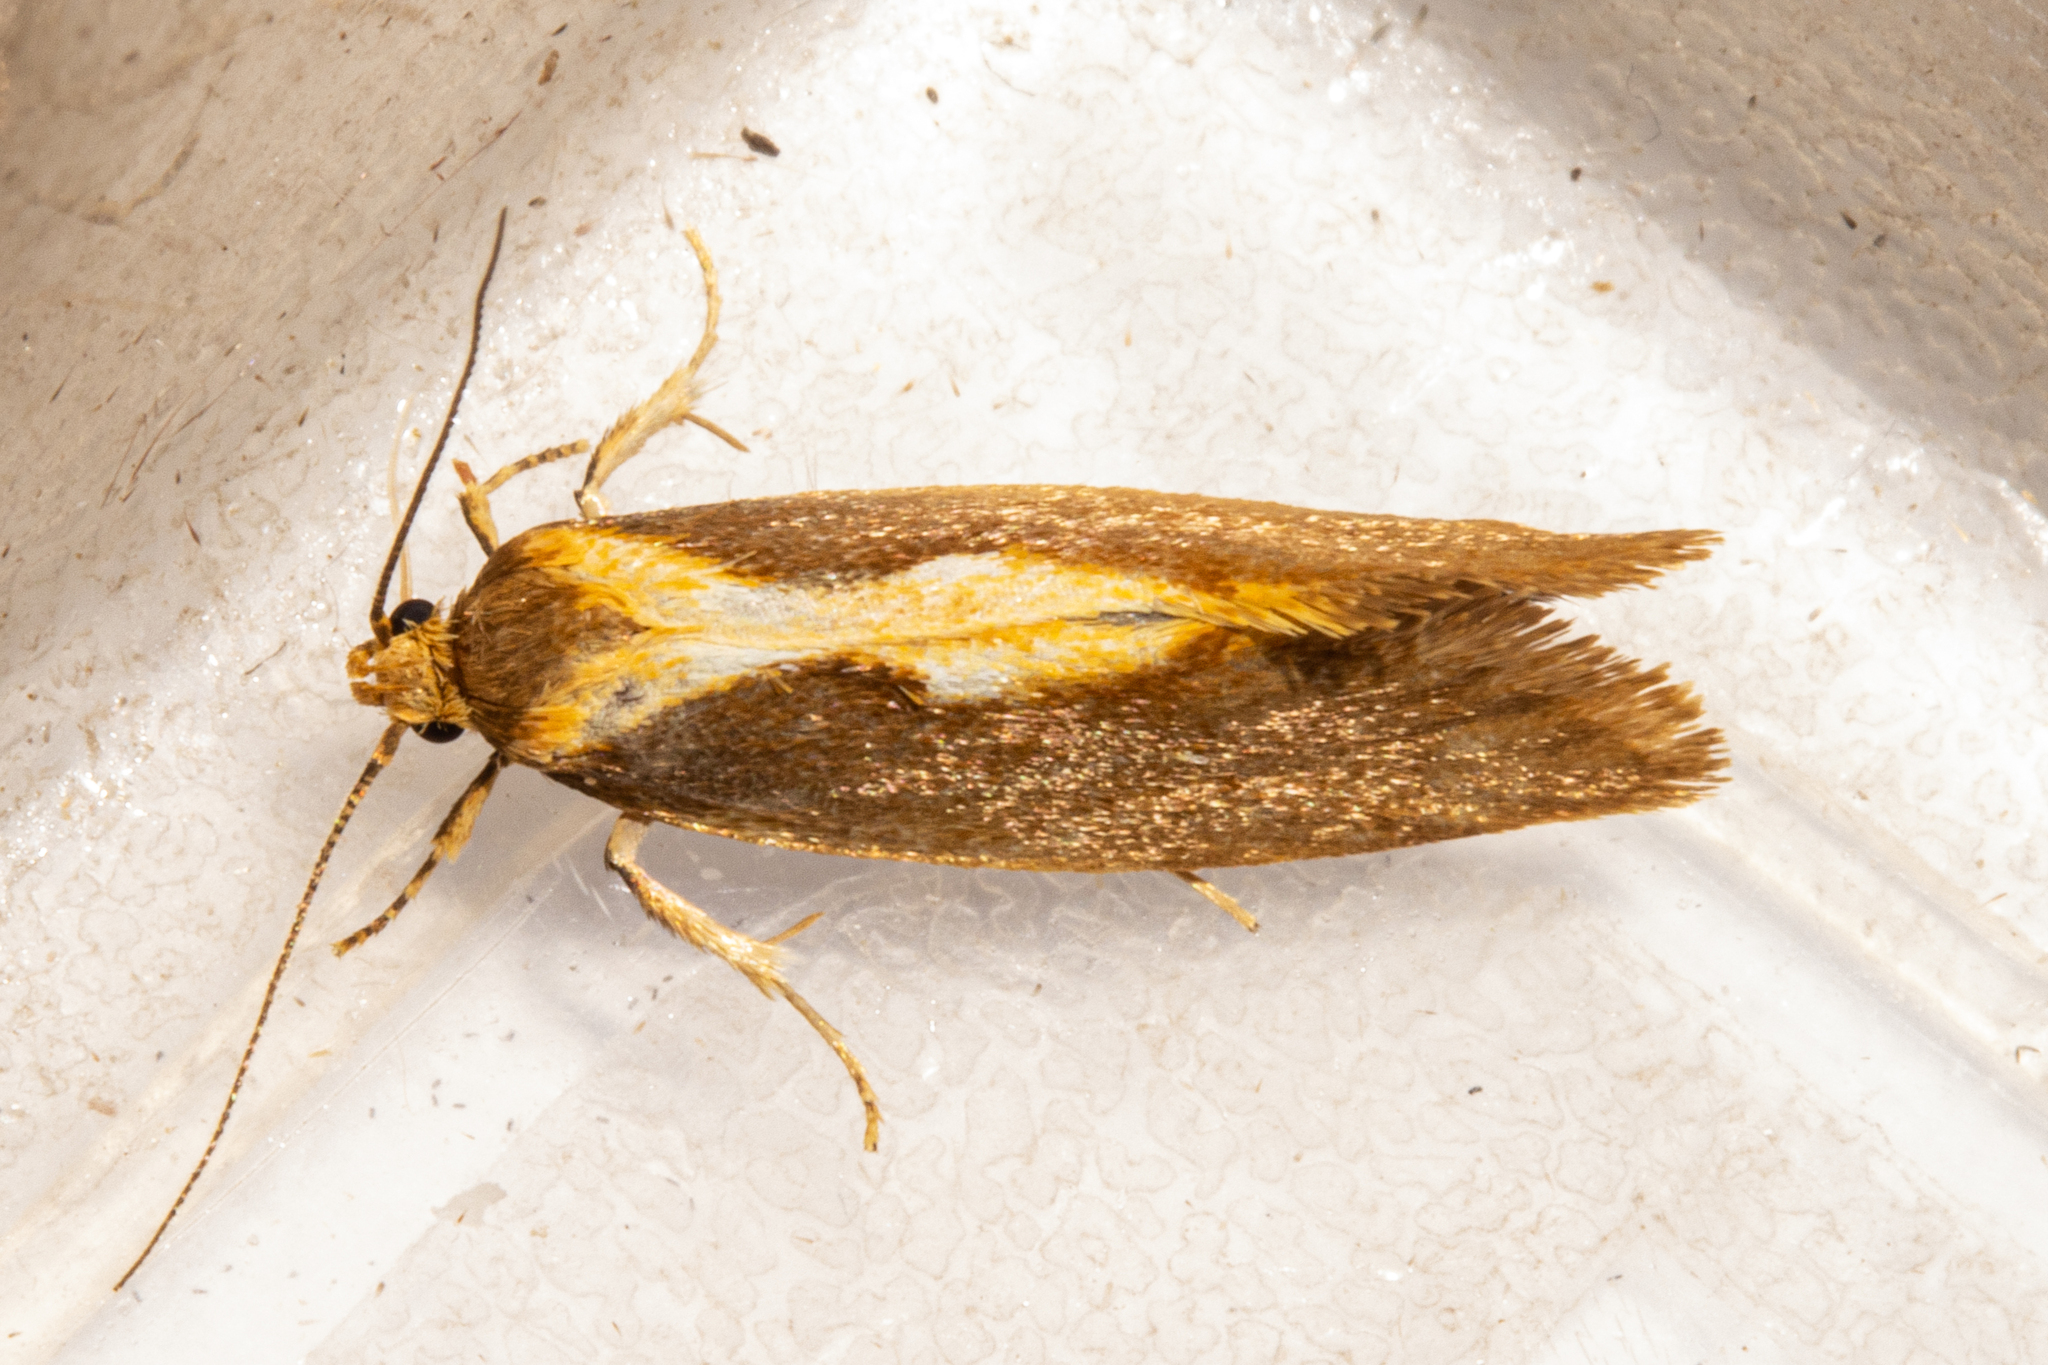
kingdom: Animalia
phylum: Arthropoda
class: Insecta
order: Lepidoptera
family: Oecophoridae
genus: Tingena
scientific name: Tingena phegophylla
